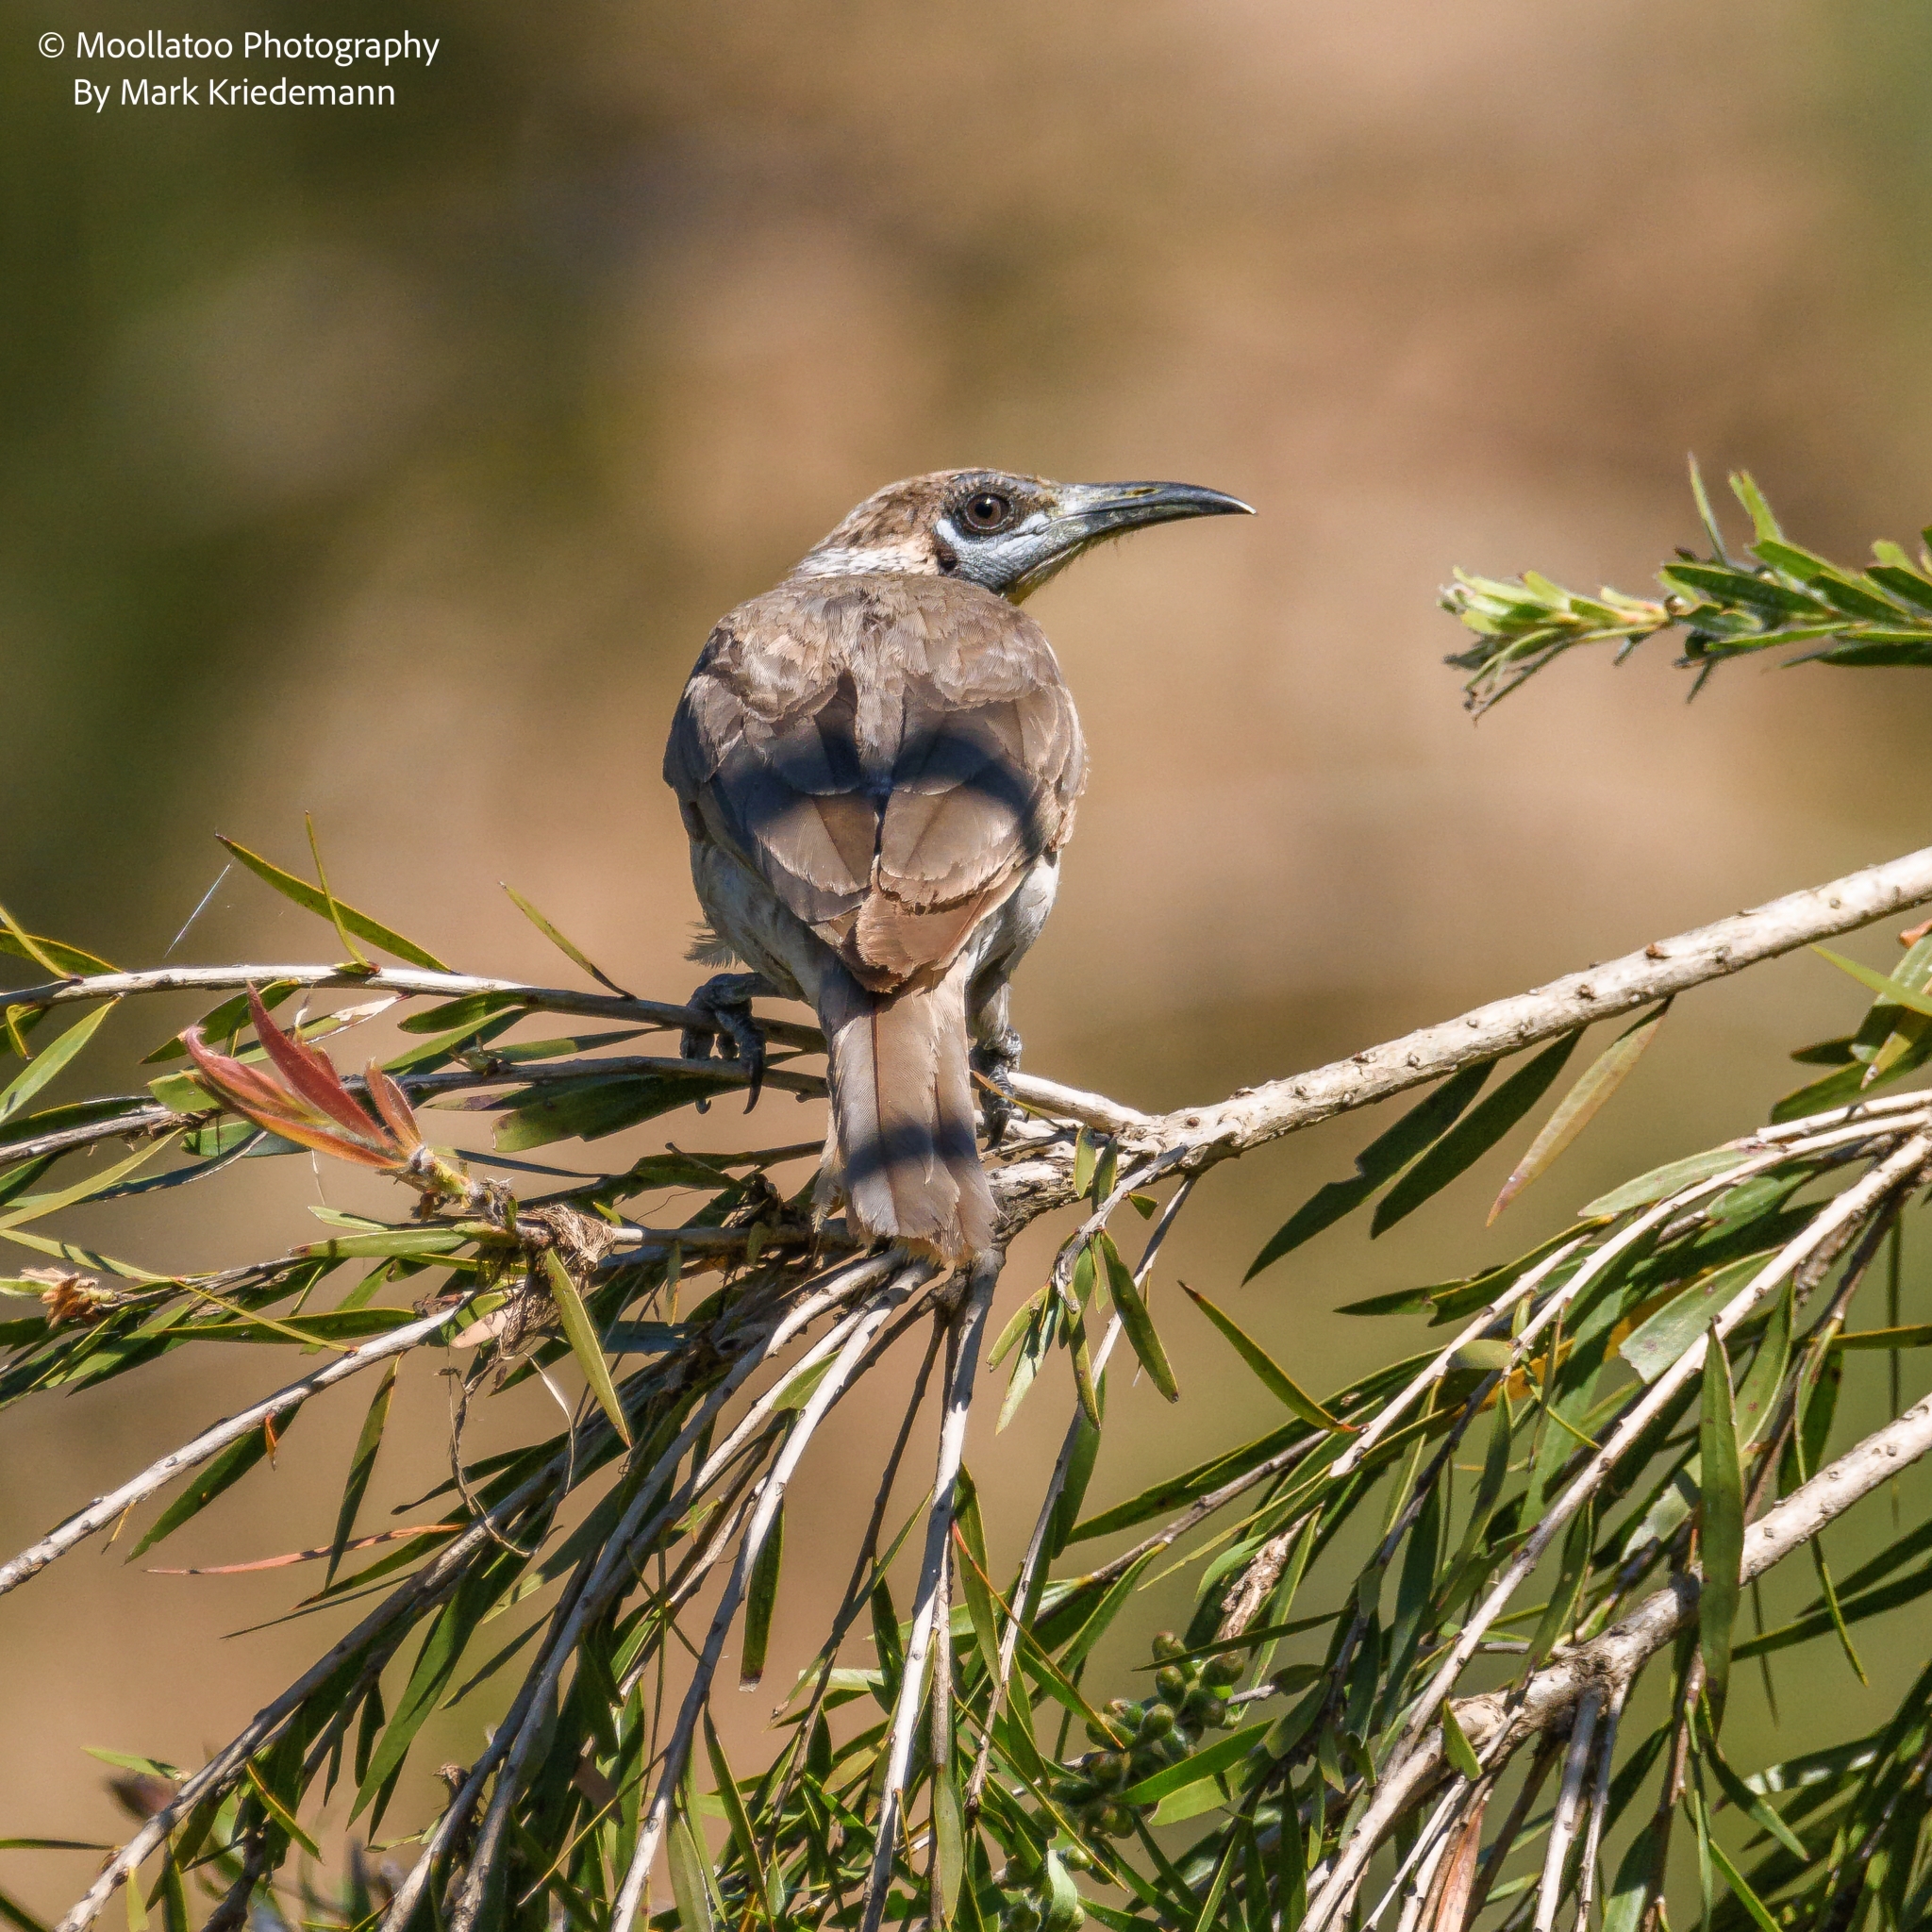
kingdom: Animalia
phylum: Chordata
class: Aves
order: Passeriformes
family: Meliphagidae
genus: Philemon
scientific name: Philemon citreogularis
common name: Little friarbird
